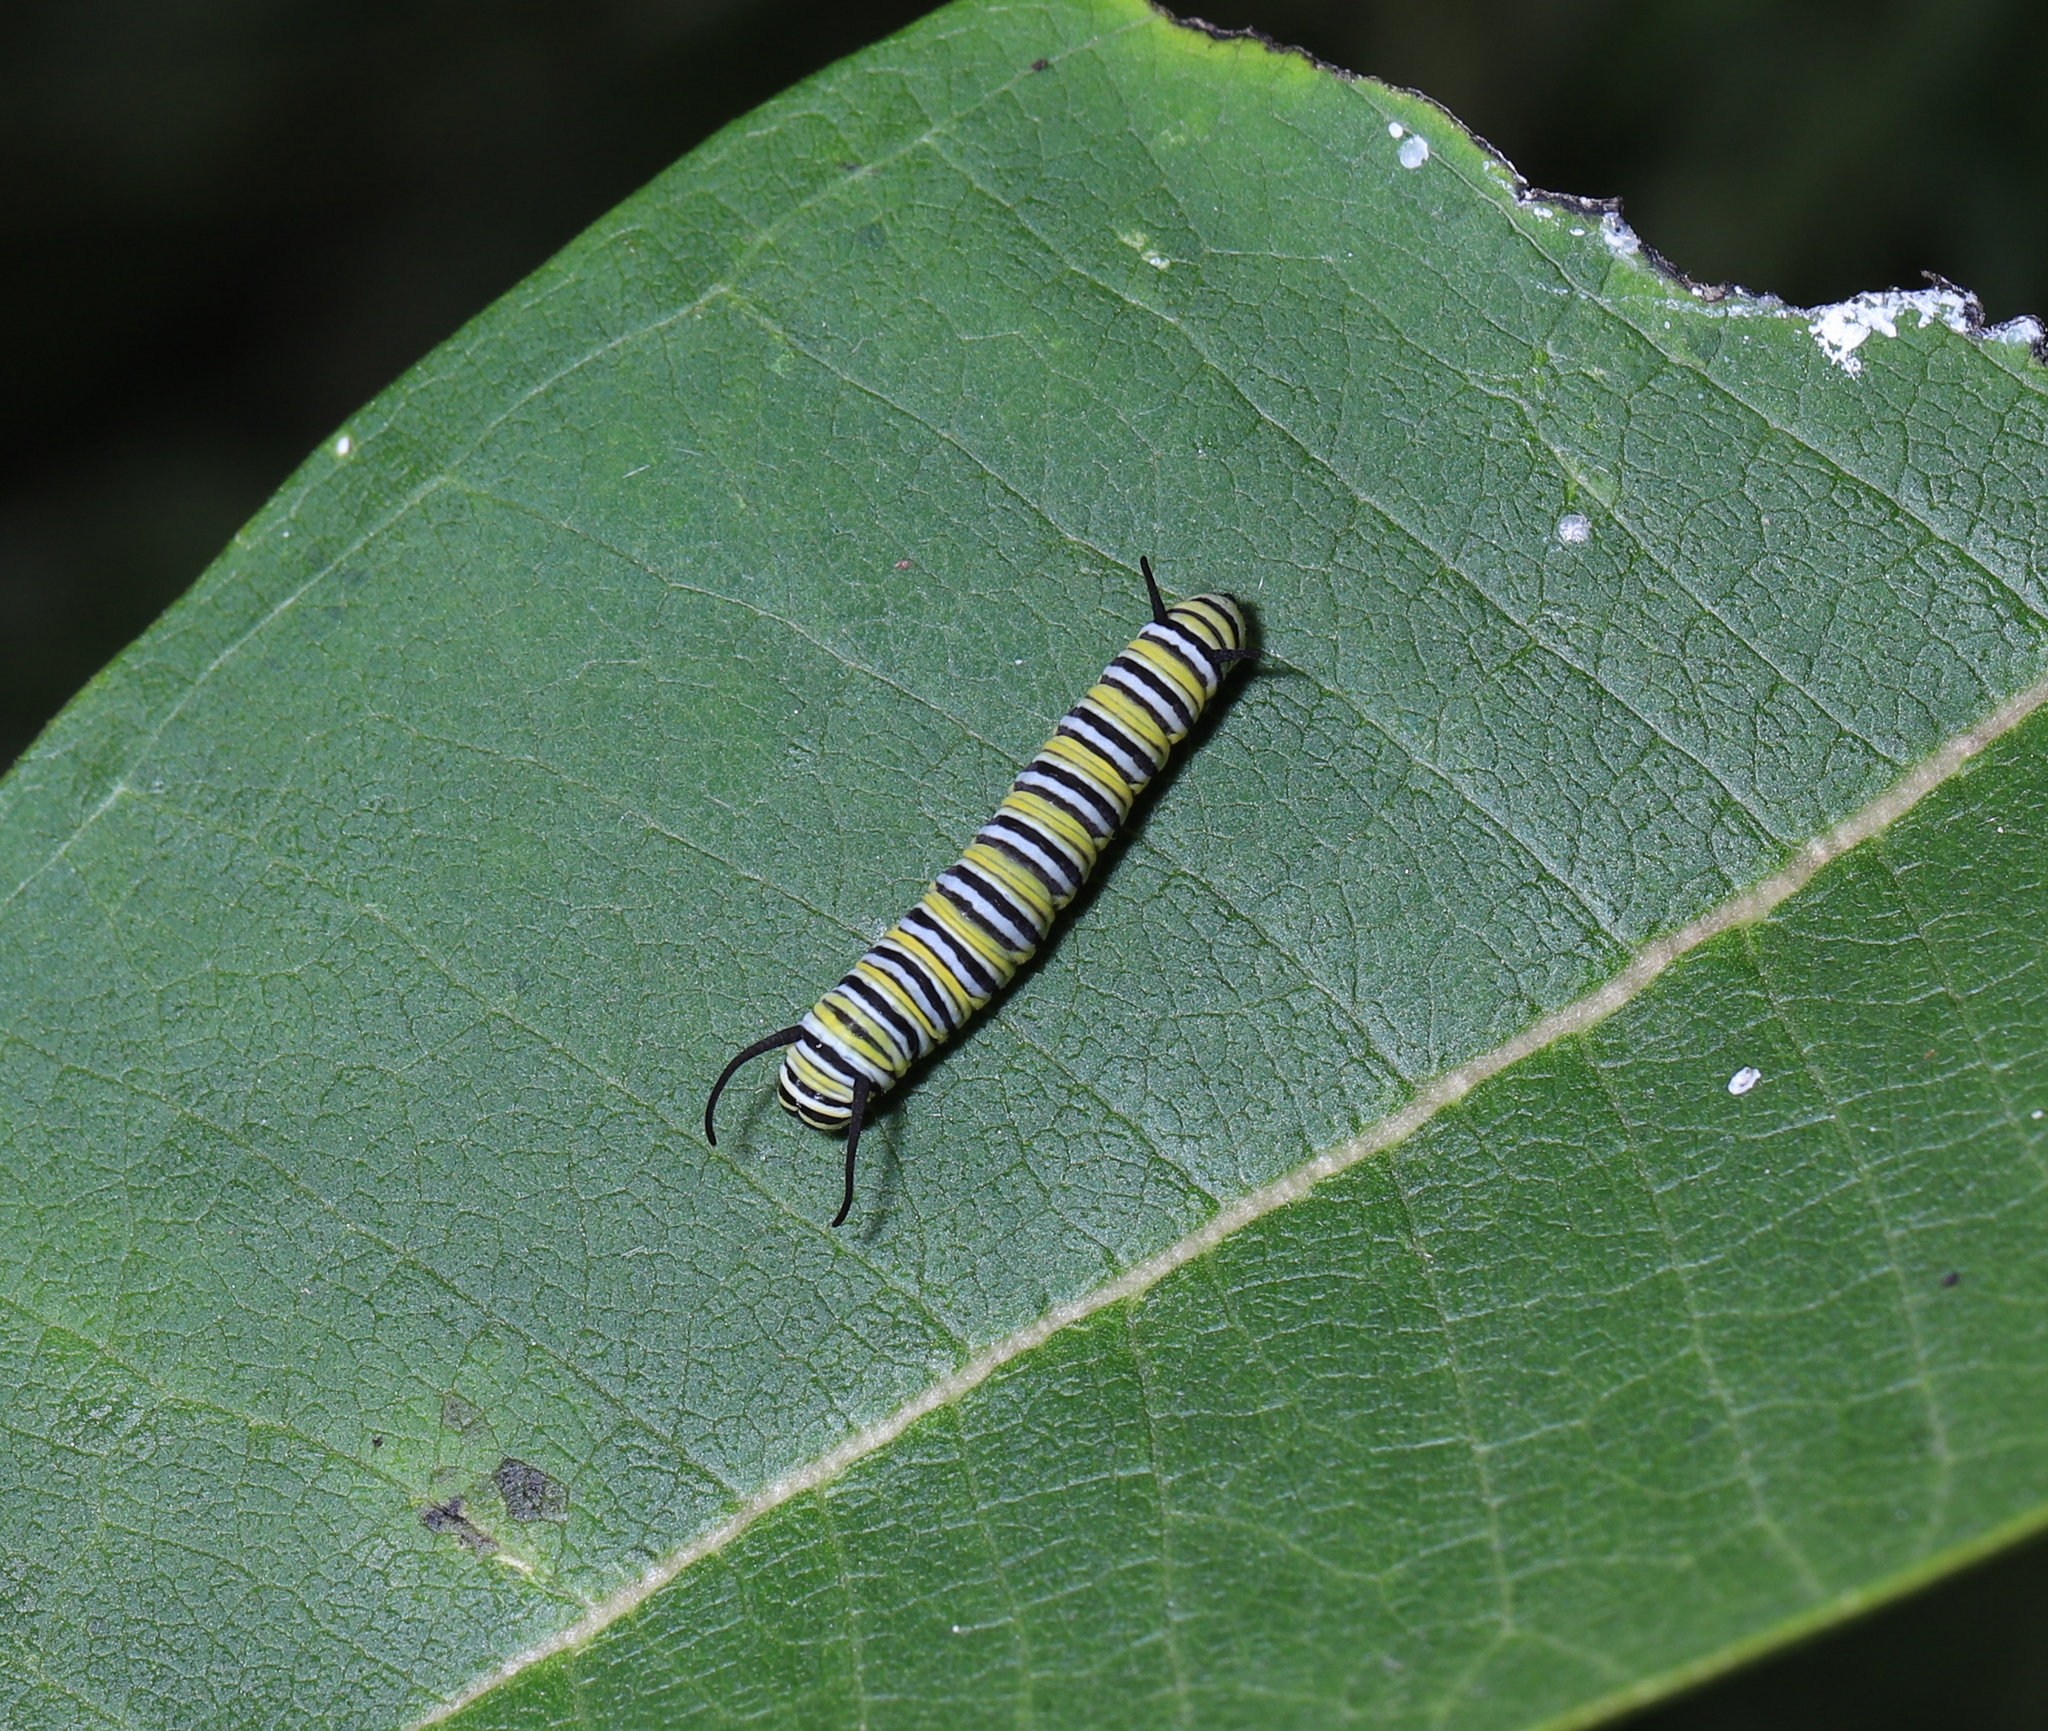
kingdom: Animalia
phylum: Arthropoda
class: Insecta
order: Lepidoptera
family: Nymphalidae
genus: Danaus
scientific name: Danaus plexippus
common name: Monarch
